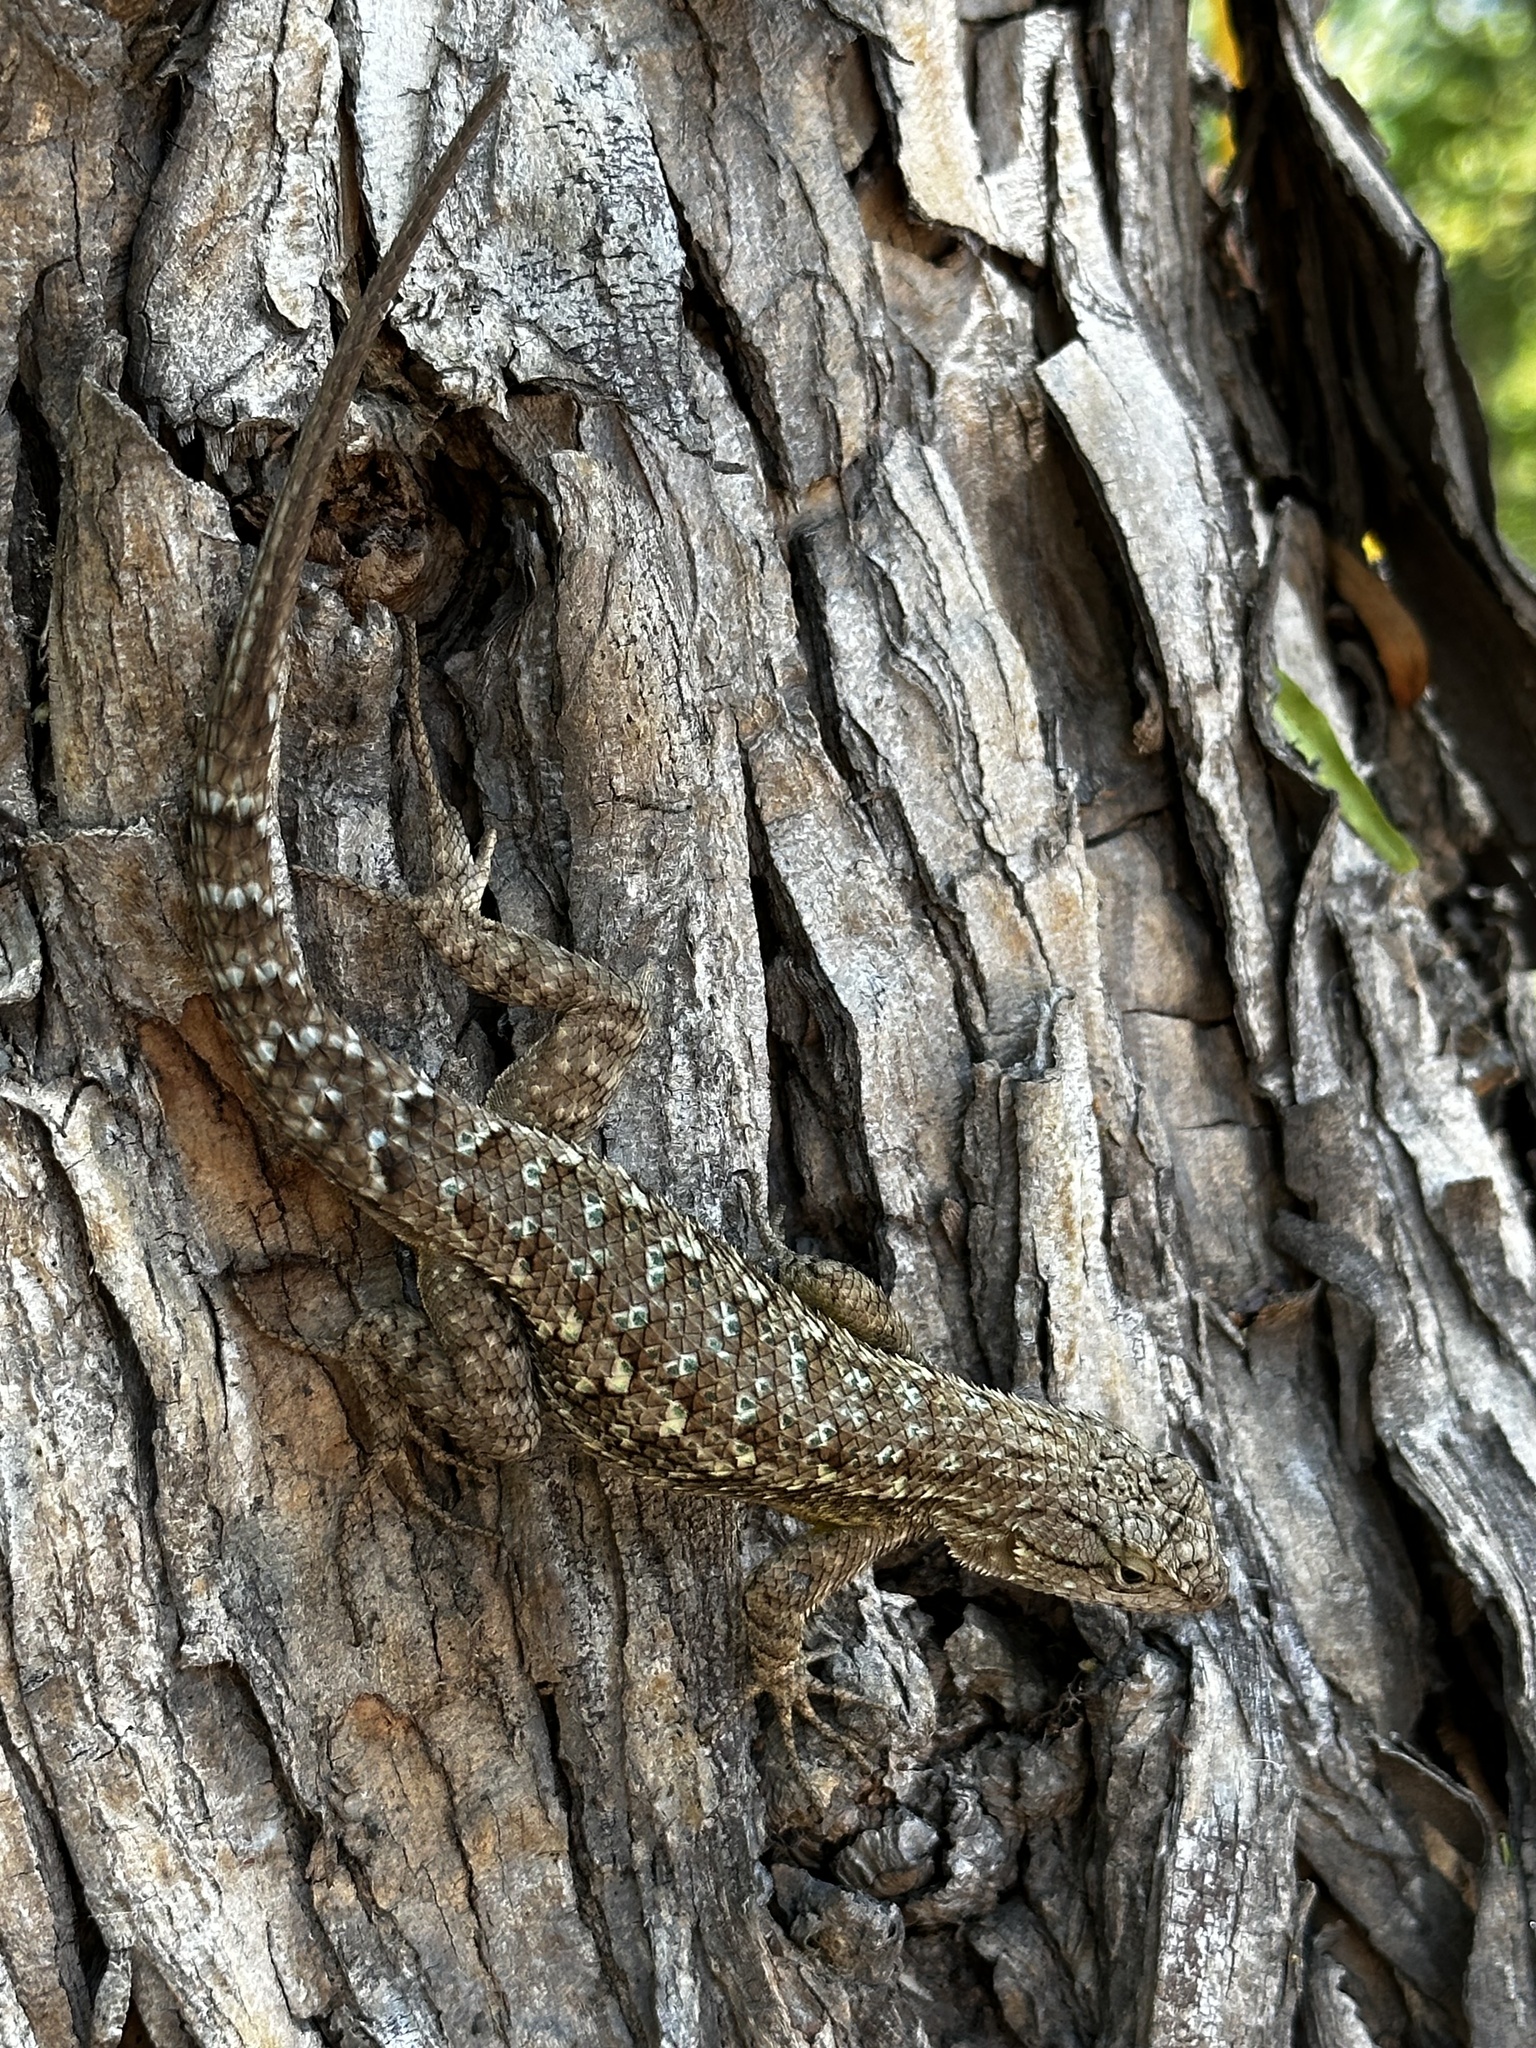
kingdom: Animalia
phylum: Chordata
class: Squamata
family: Phrynosomatidae
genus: Sceloporus
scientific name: Sceloporus occidentalis
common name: Western fence lizard
